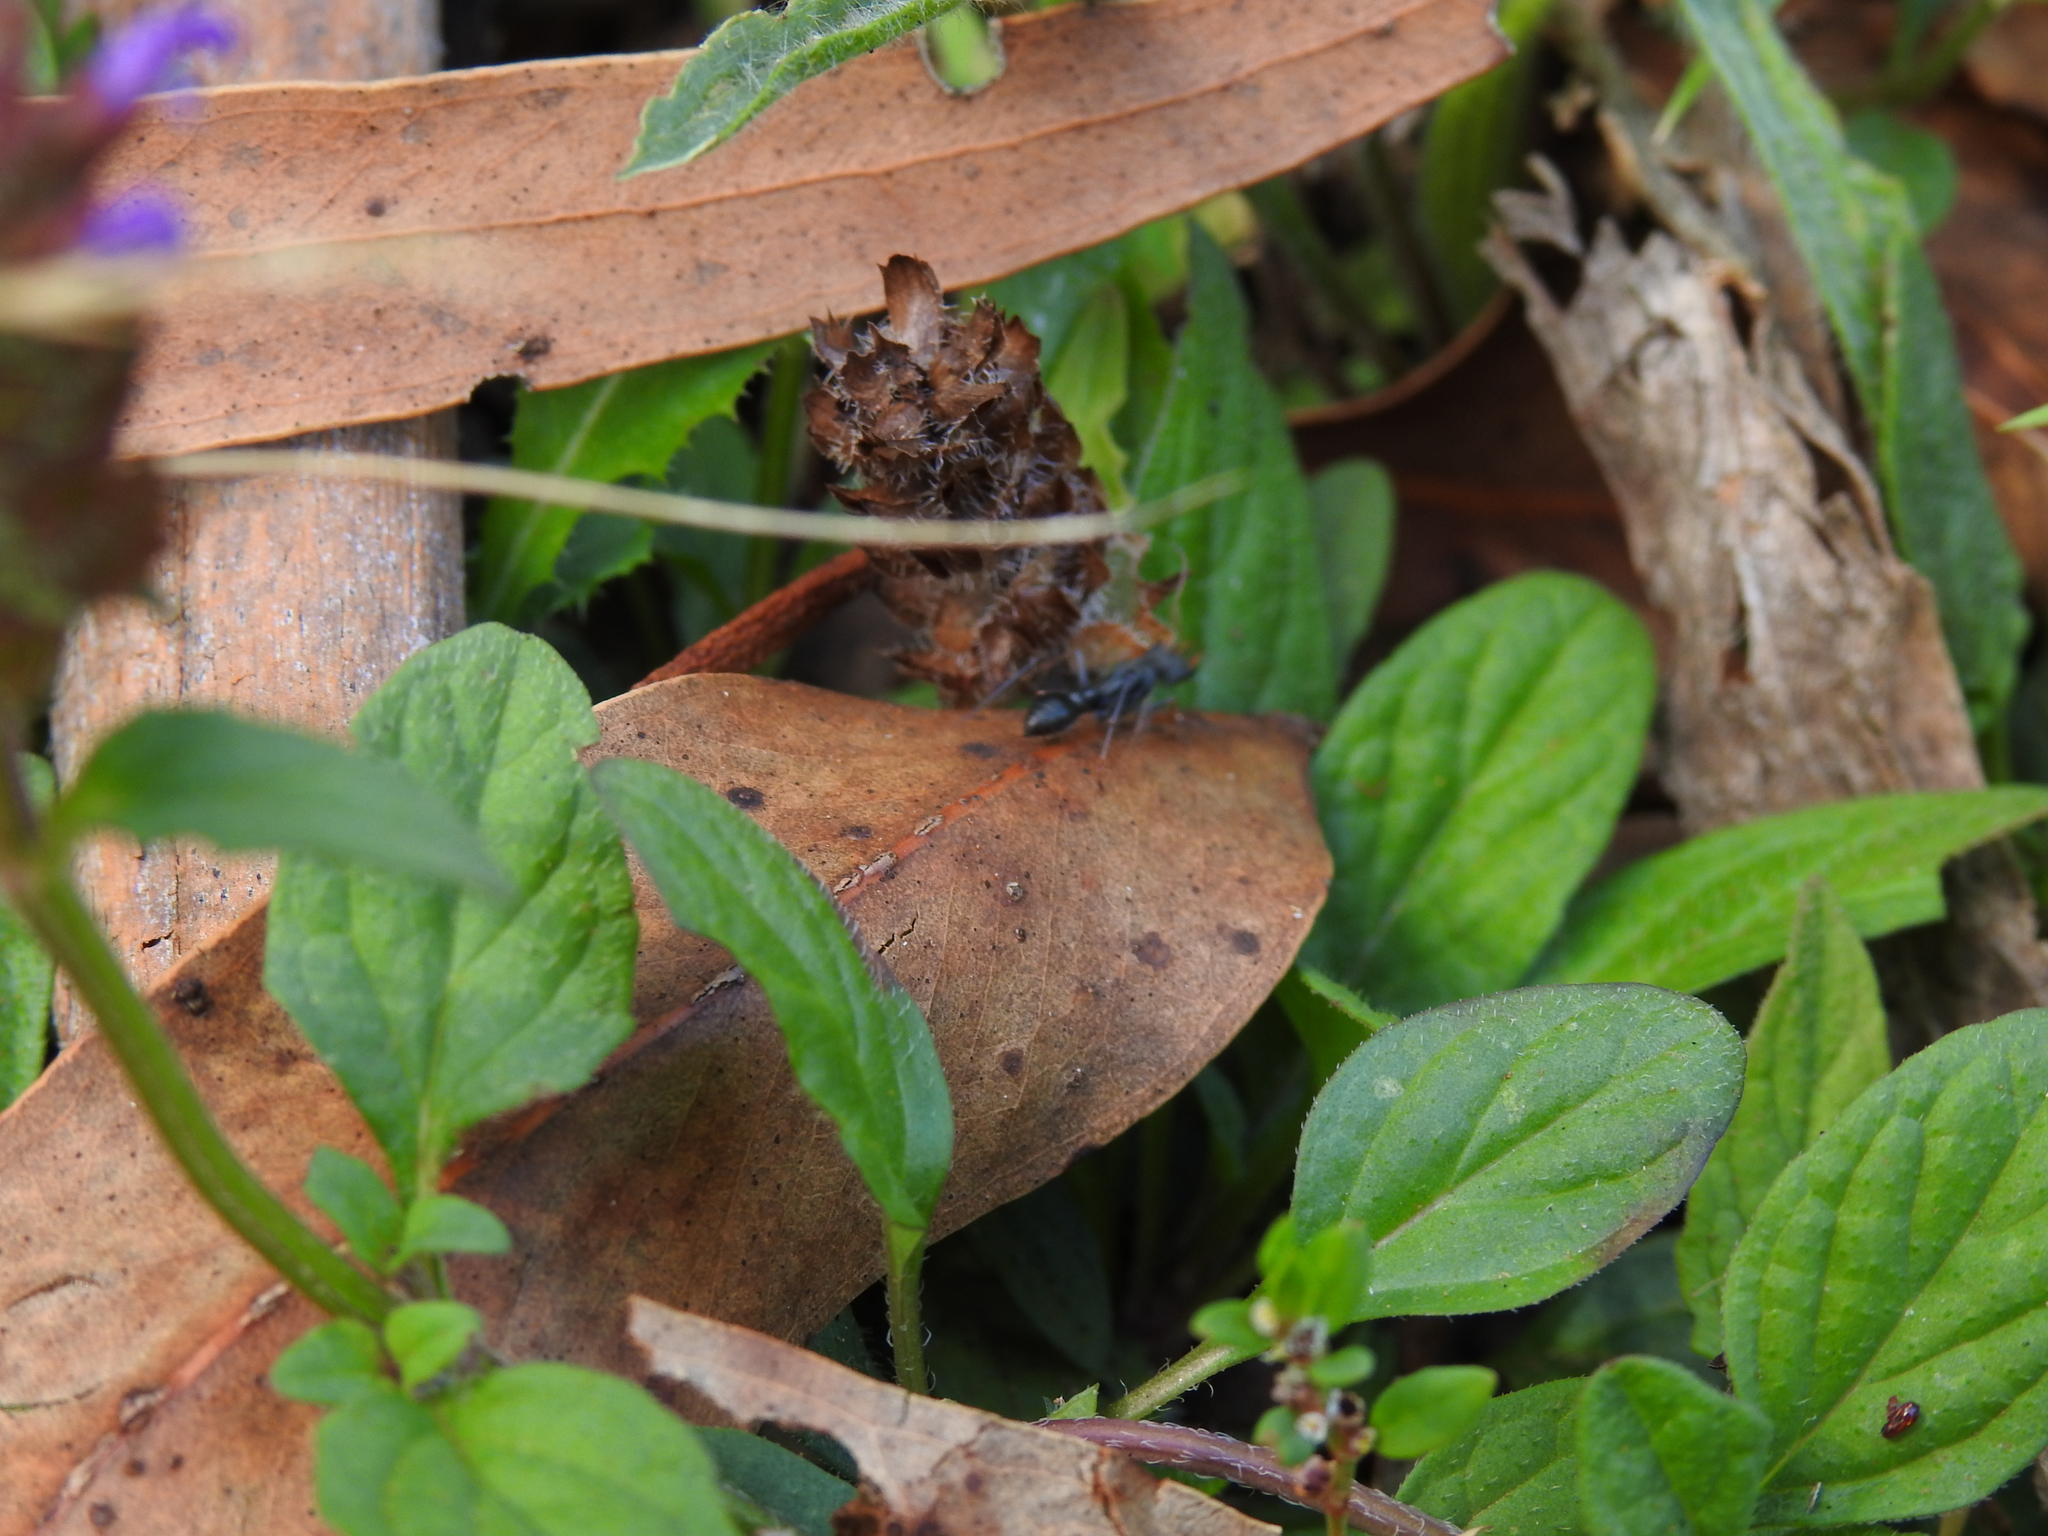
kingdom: Animalia
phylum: Arthropoda
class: Insecta
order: Hymenoptera
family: Formicidae
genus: Myrmecia
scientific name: Myrmecia pilosula
